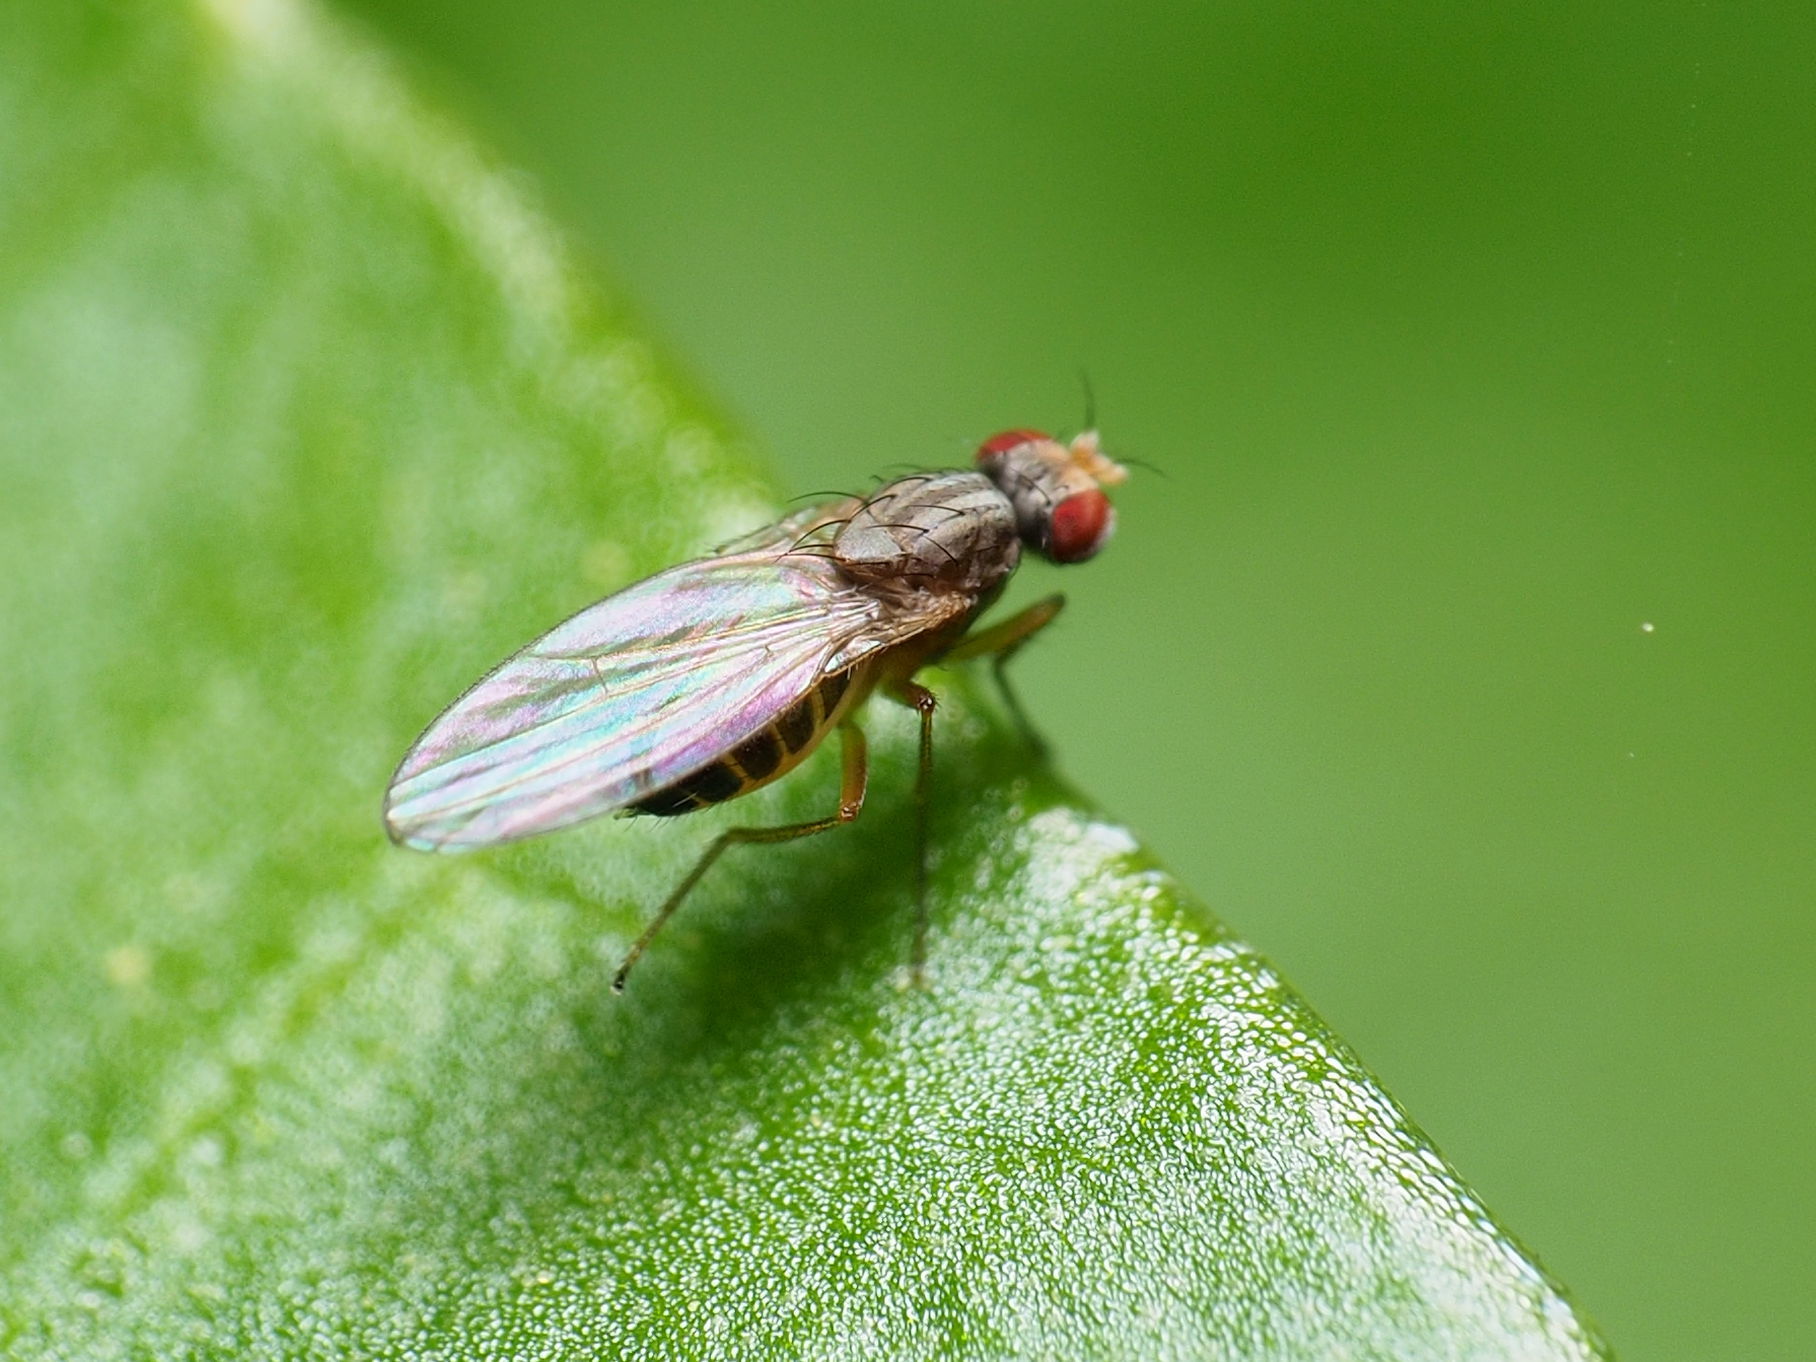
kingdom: Animalia
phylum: Arthropoda
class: Insecta
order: Diptera
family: Drosophilidae
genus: Scaptomyza
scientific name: Scaptomyza pallida
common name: Pomace fly
